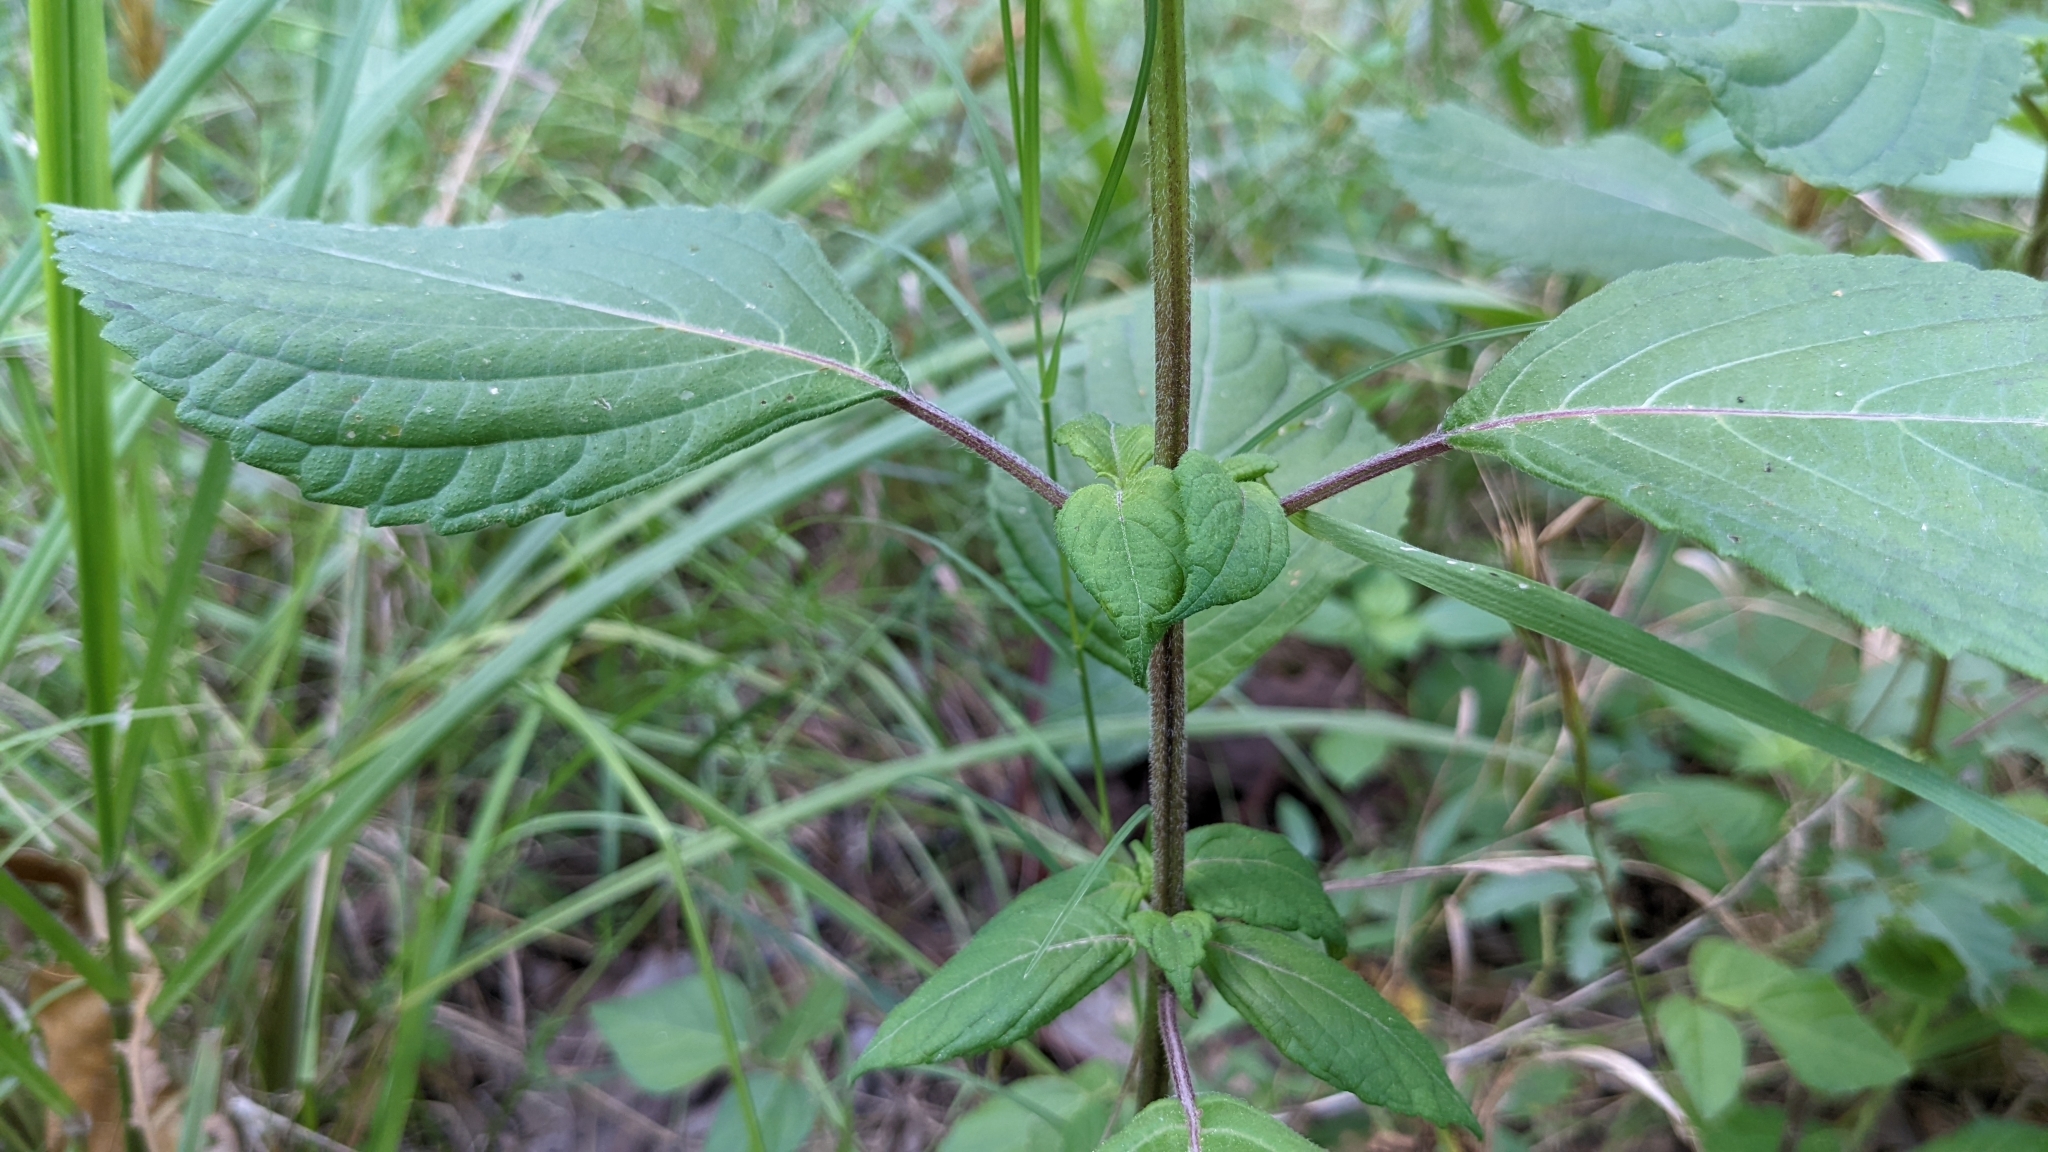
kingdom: Plantae
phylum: Tracheophyta
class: Magnoliopsida
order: Lamiales
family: Lamiaceae
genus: Perilla
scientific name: Perilla frutescens
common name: Perilla
